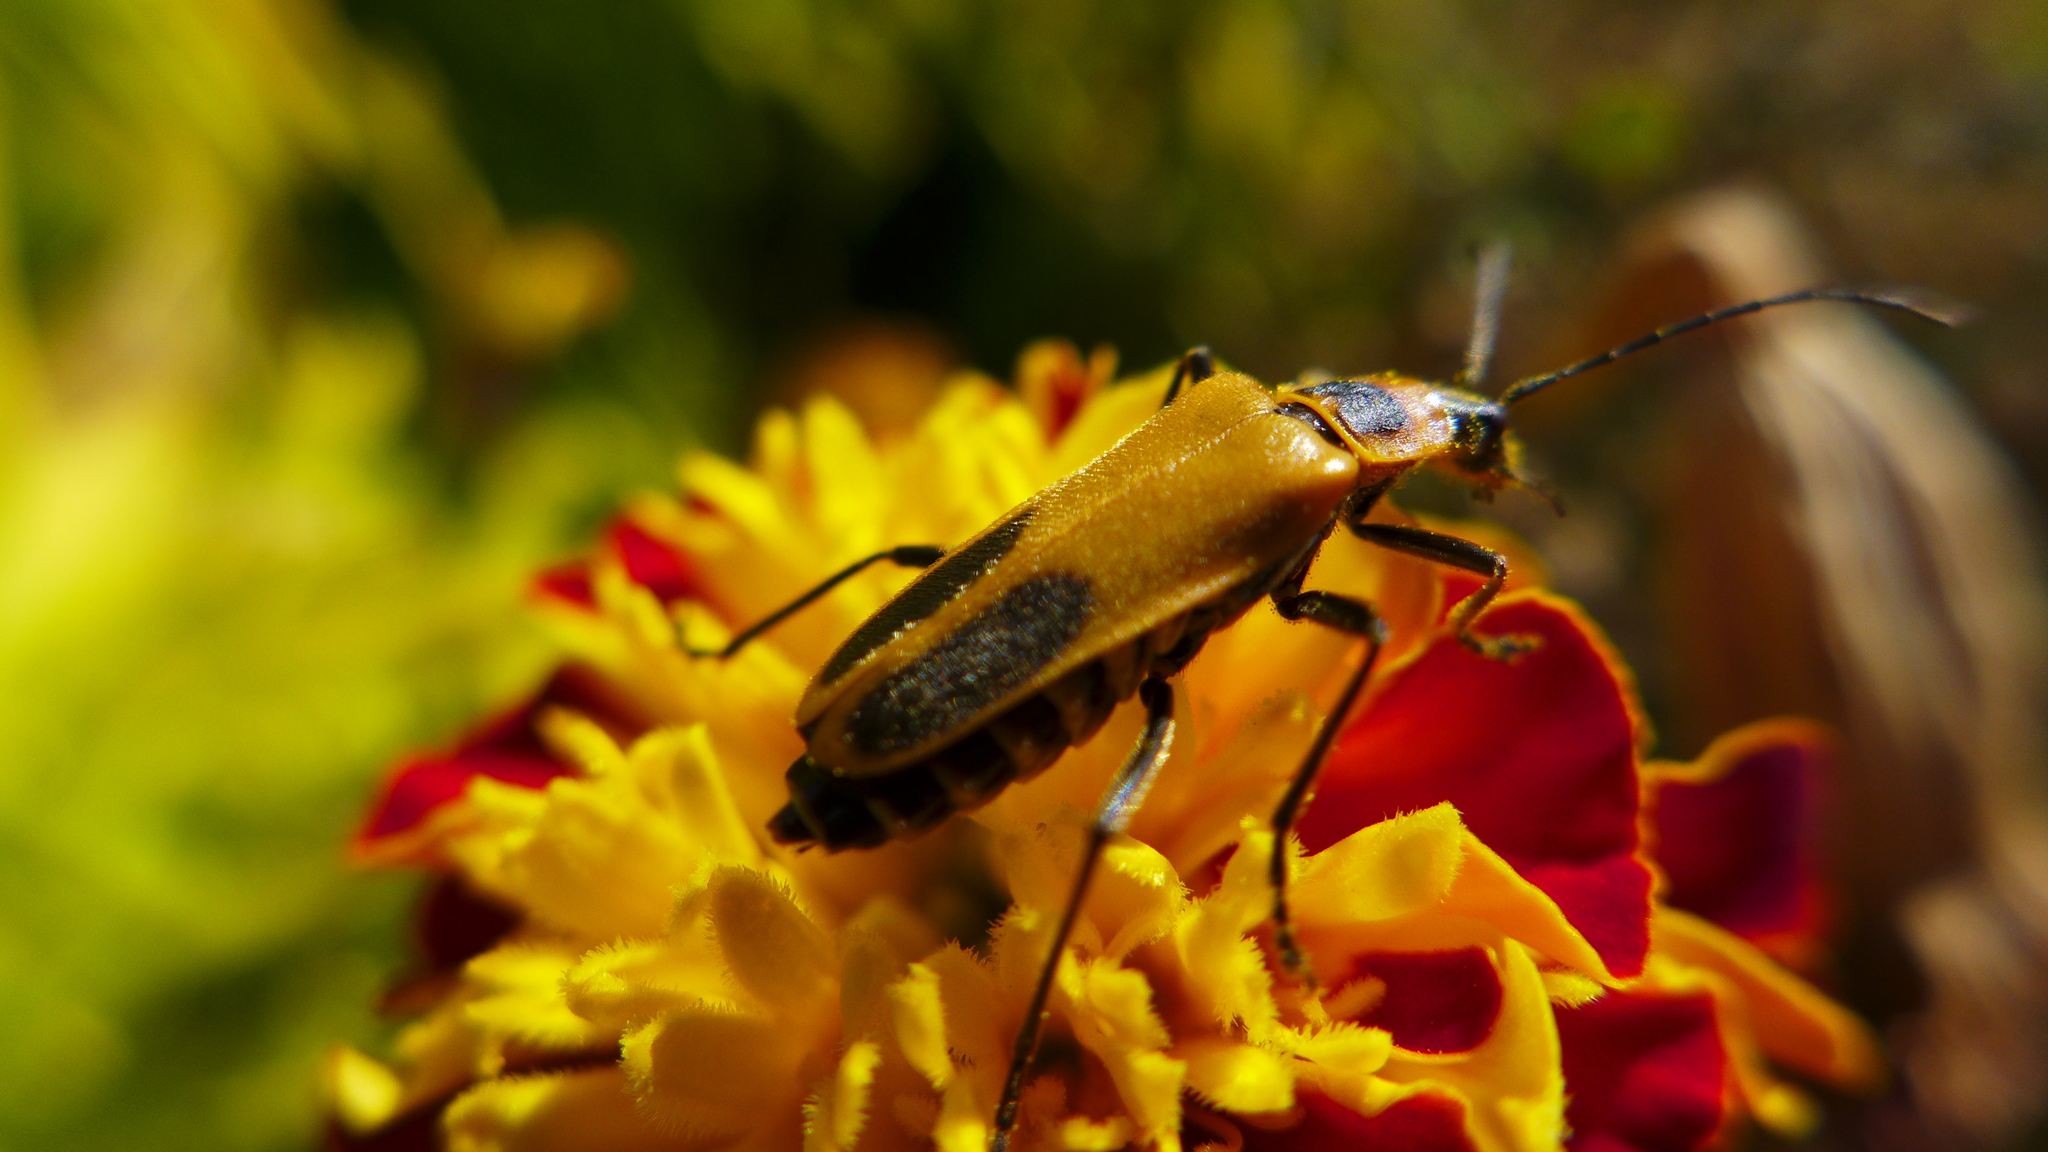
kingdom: Animalia
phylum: Arthropoda
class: Insecta
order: Coleoptera
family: Cantharidae
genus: Chauliognathus
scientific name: Chauliognathus pensylvanicus
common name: Goldenrod soldier beetle
